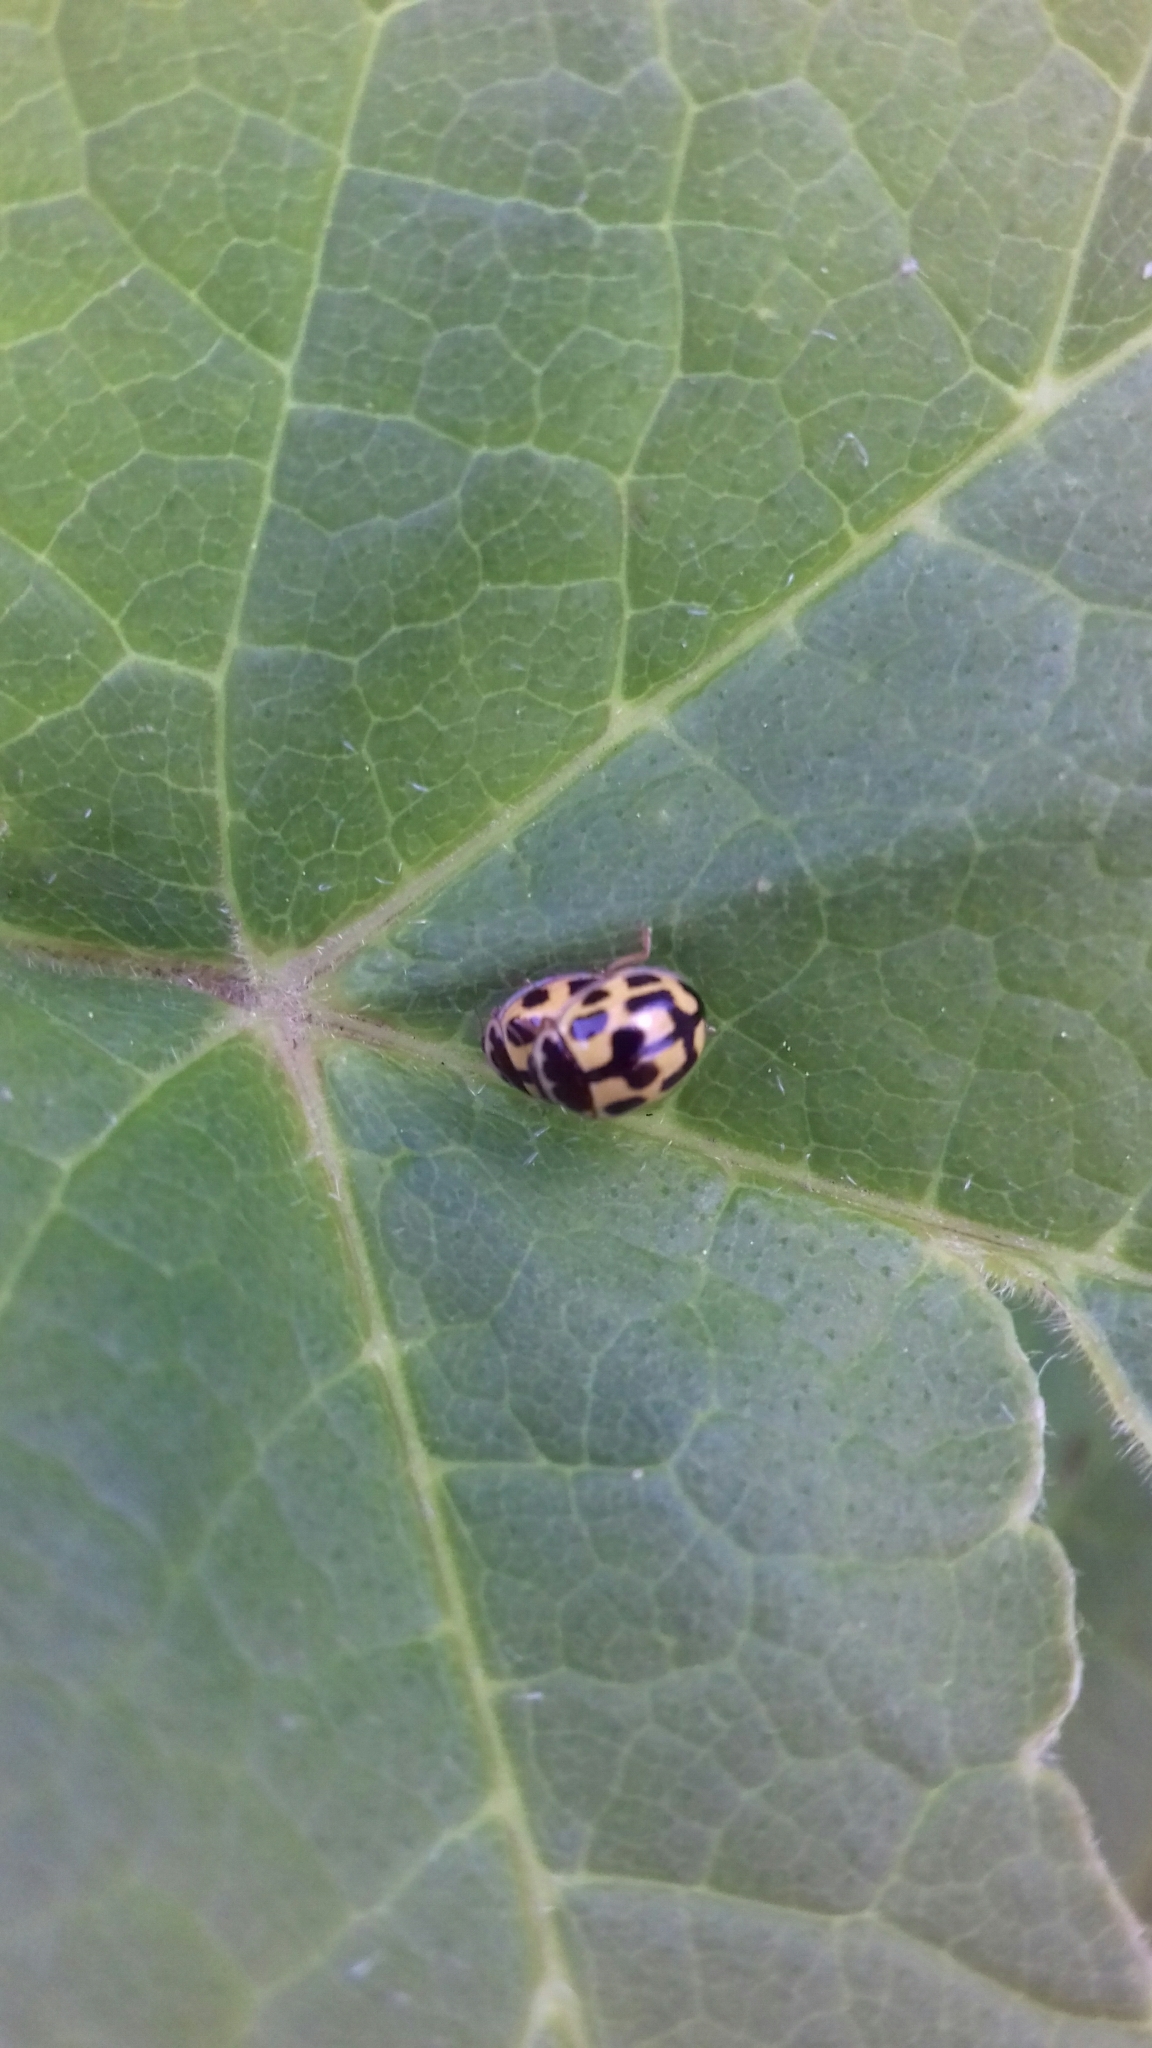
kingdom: Animalia
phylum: Arthropoda
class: Insecta
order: Coleoptera
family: Coccinellidae
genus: Propylaea
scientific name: Propylaea quatuordecimpunctata
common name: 14-spotted ladybird beetle
